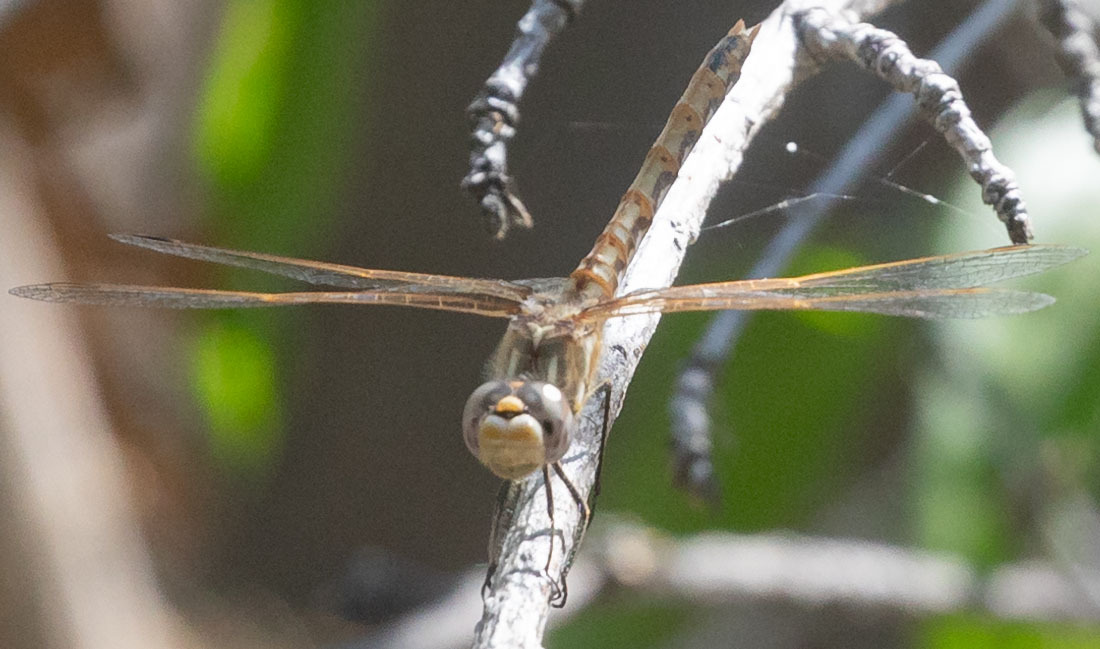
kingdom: Animalia
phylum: Arthropoda
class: Insecta
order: Odonata
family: Libellulidae
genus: Sympetrum
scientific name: Sympetrum corruptum
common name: Variegated meadowhawk
